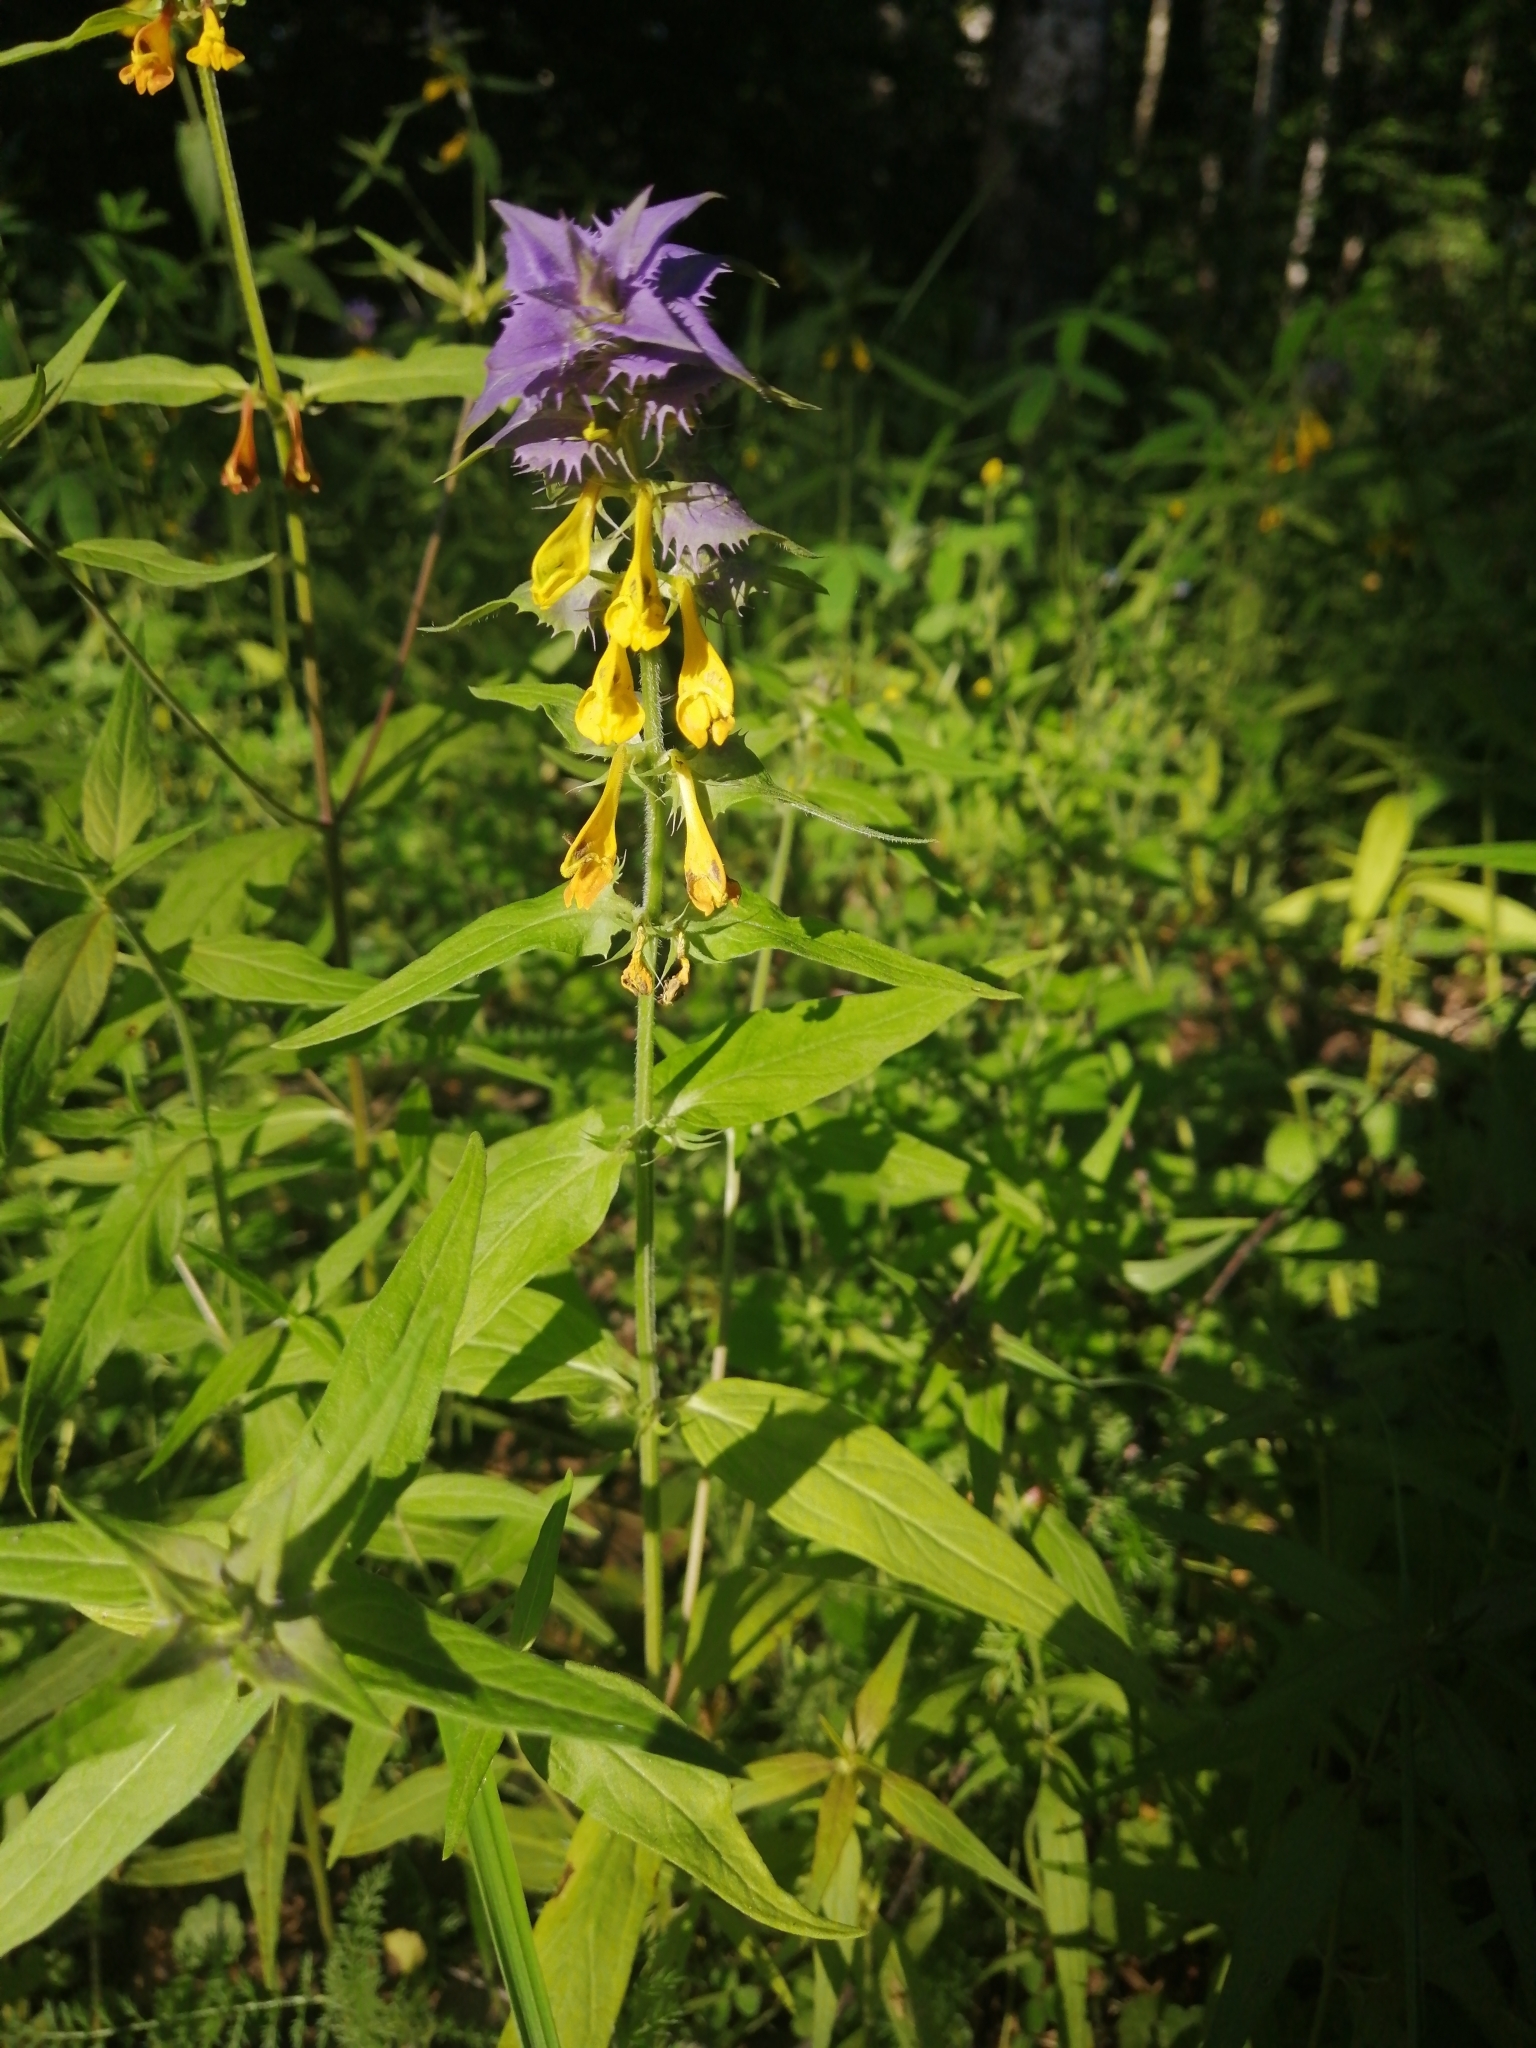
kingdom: Plantae
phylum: Tracheophyta
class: Magnoliopsida
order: Lamiales
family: Orobanchaceae
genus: Melampyrum
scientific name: Melampyrum nemorosum
